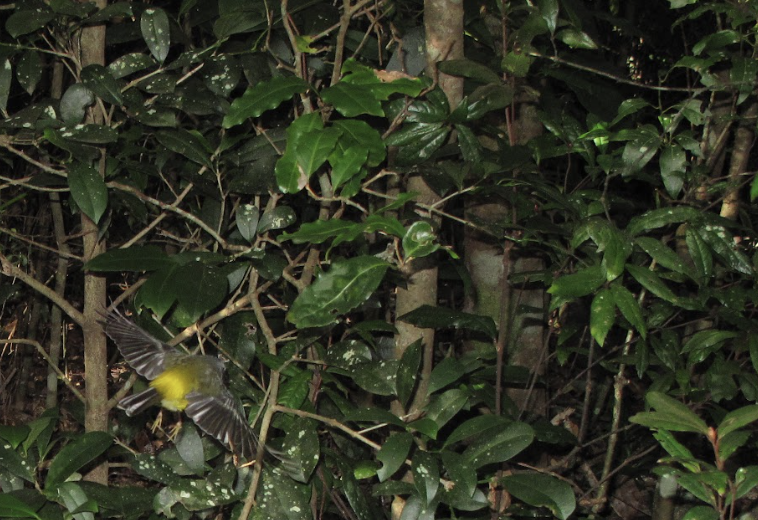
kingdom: Animalia
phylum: Chordata
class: Aves
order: Passeriformes
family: Petroicidae
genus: Eopsaltria
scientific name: Eopsaltria australis
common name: Eastern yellow robin
